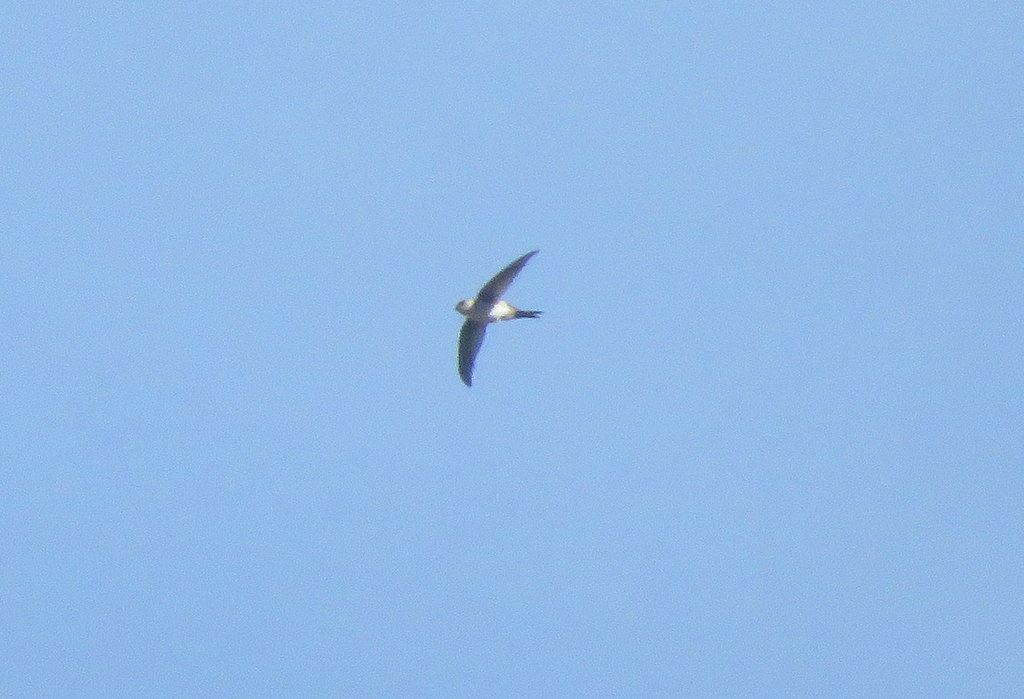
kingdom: Animalia
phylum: Chordata
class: Aves
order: Apodiformes
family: Apodidae
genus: Aeronautes
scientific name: Aeronautes andecolus
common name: Andean swift
